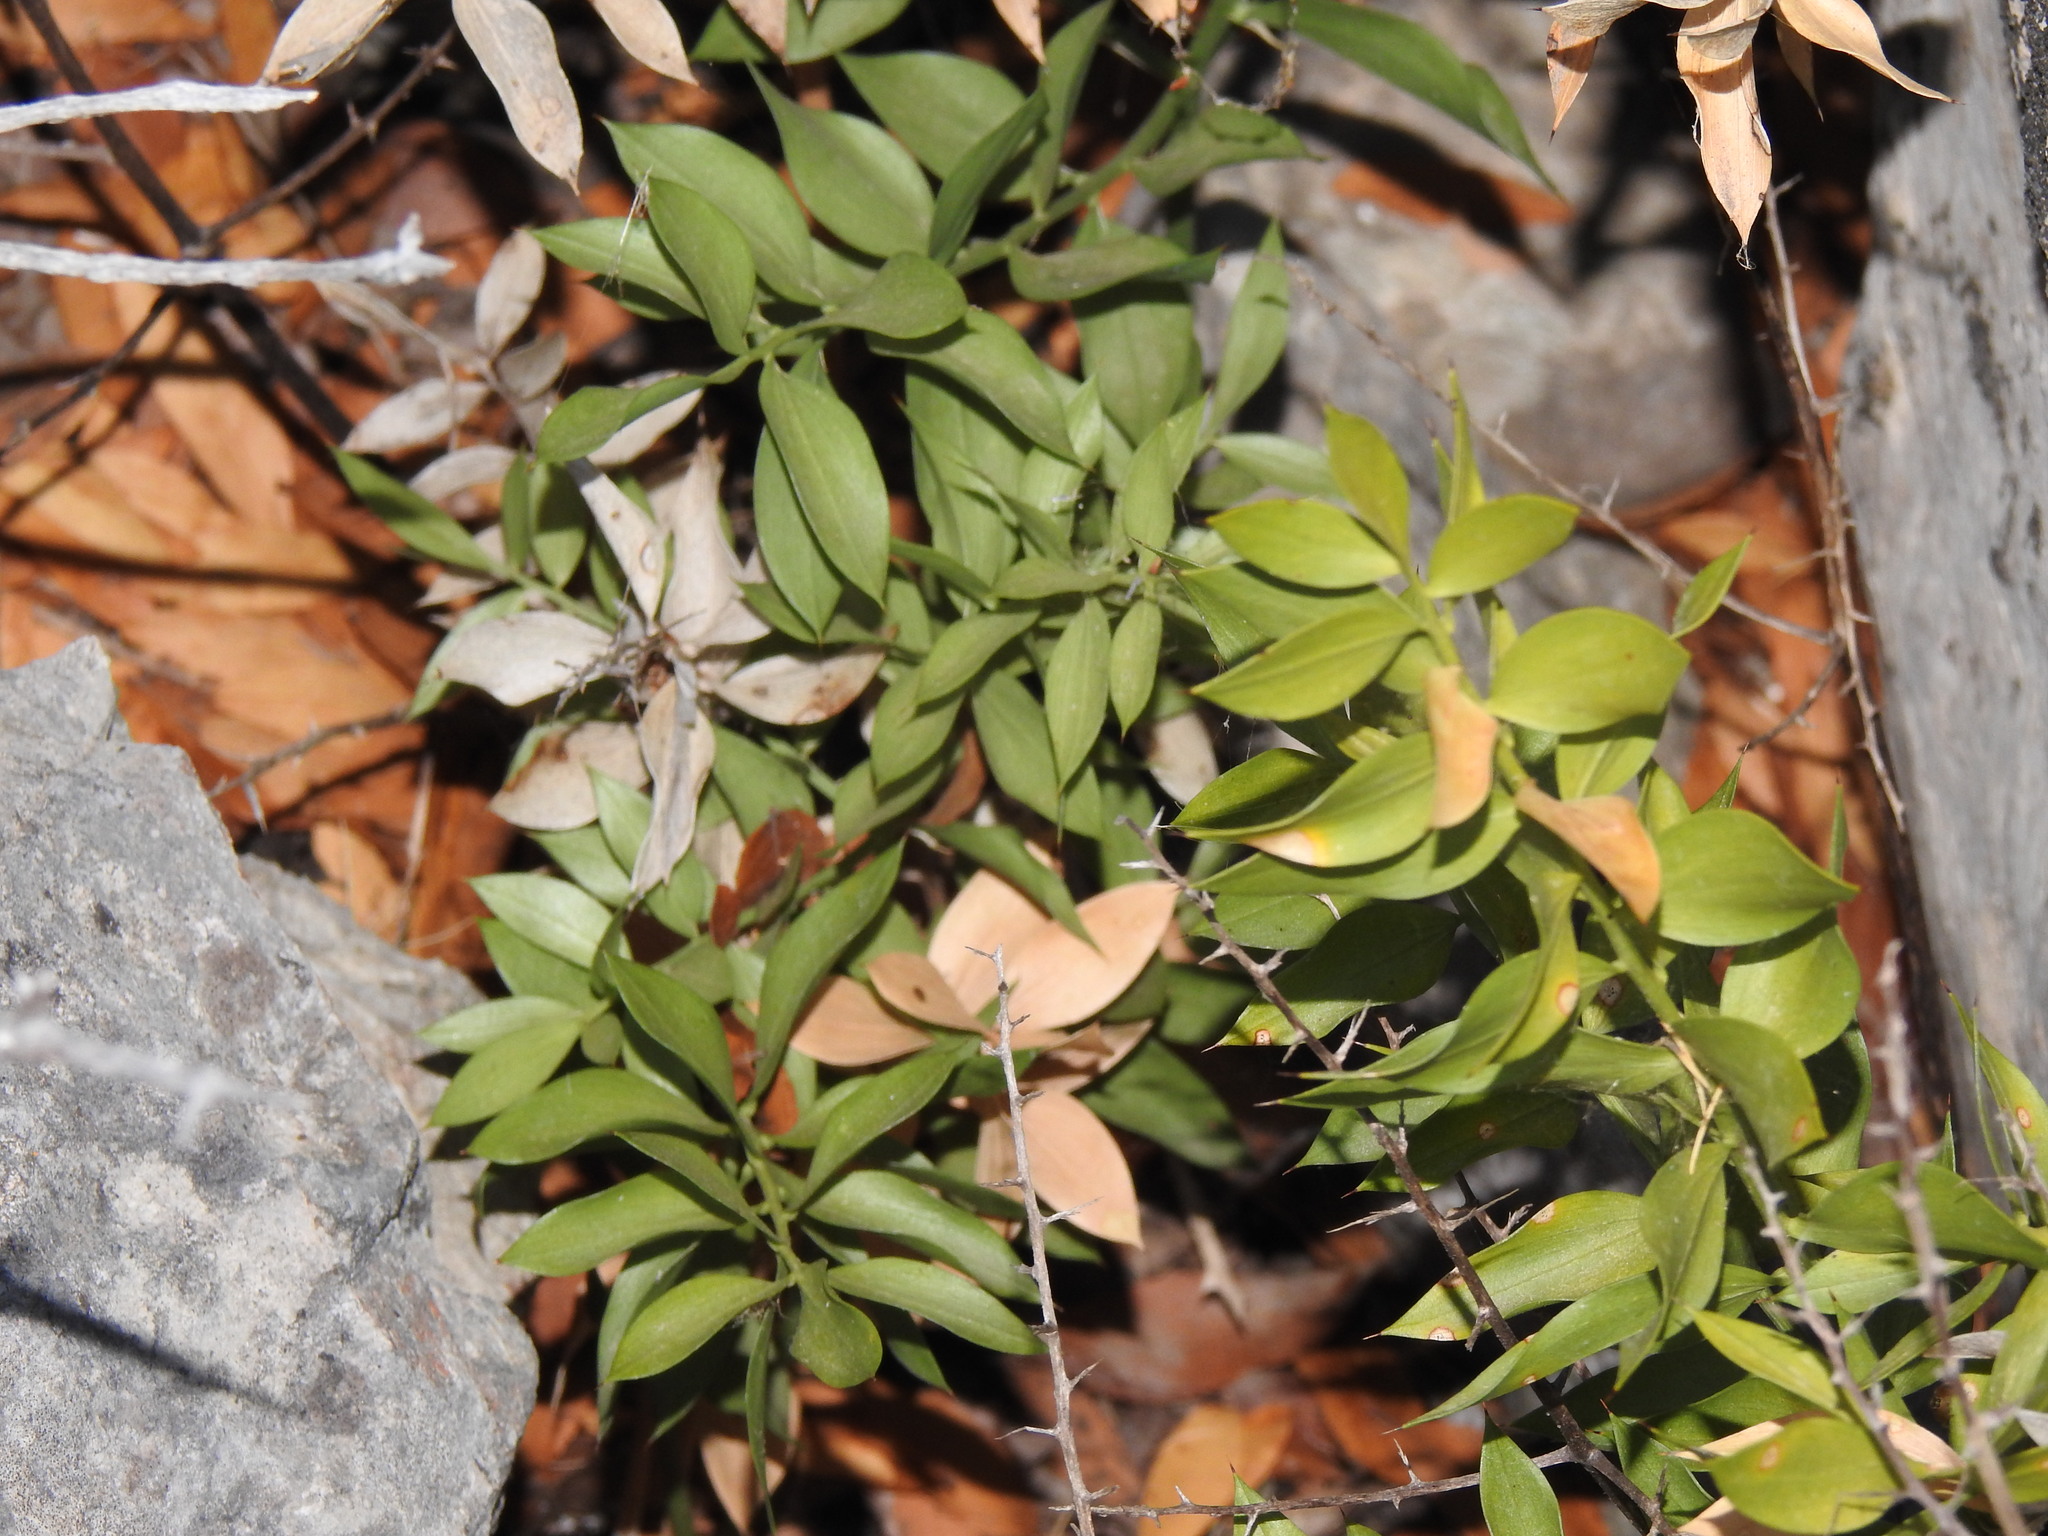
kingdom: Plantae
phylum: Tracheophyta
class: Liliopsida
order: Asparagales
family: Asparagaceae
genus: Ruscus
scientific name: Ruscus aculeatus
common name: Butcher's-broom
